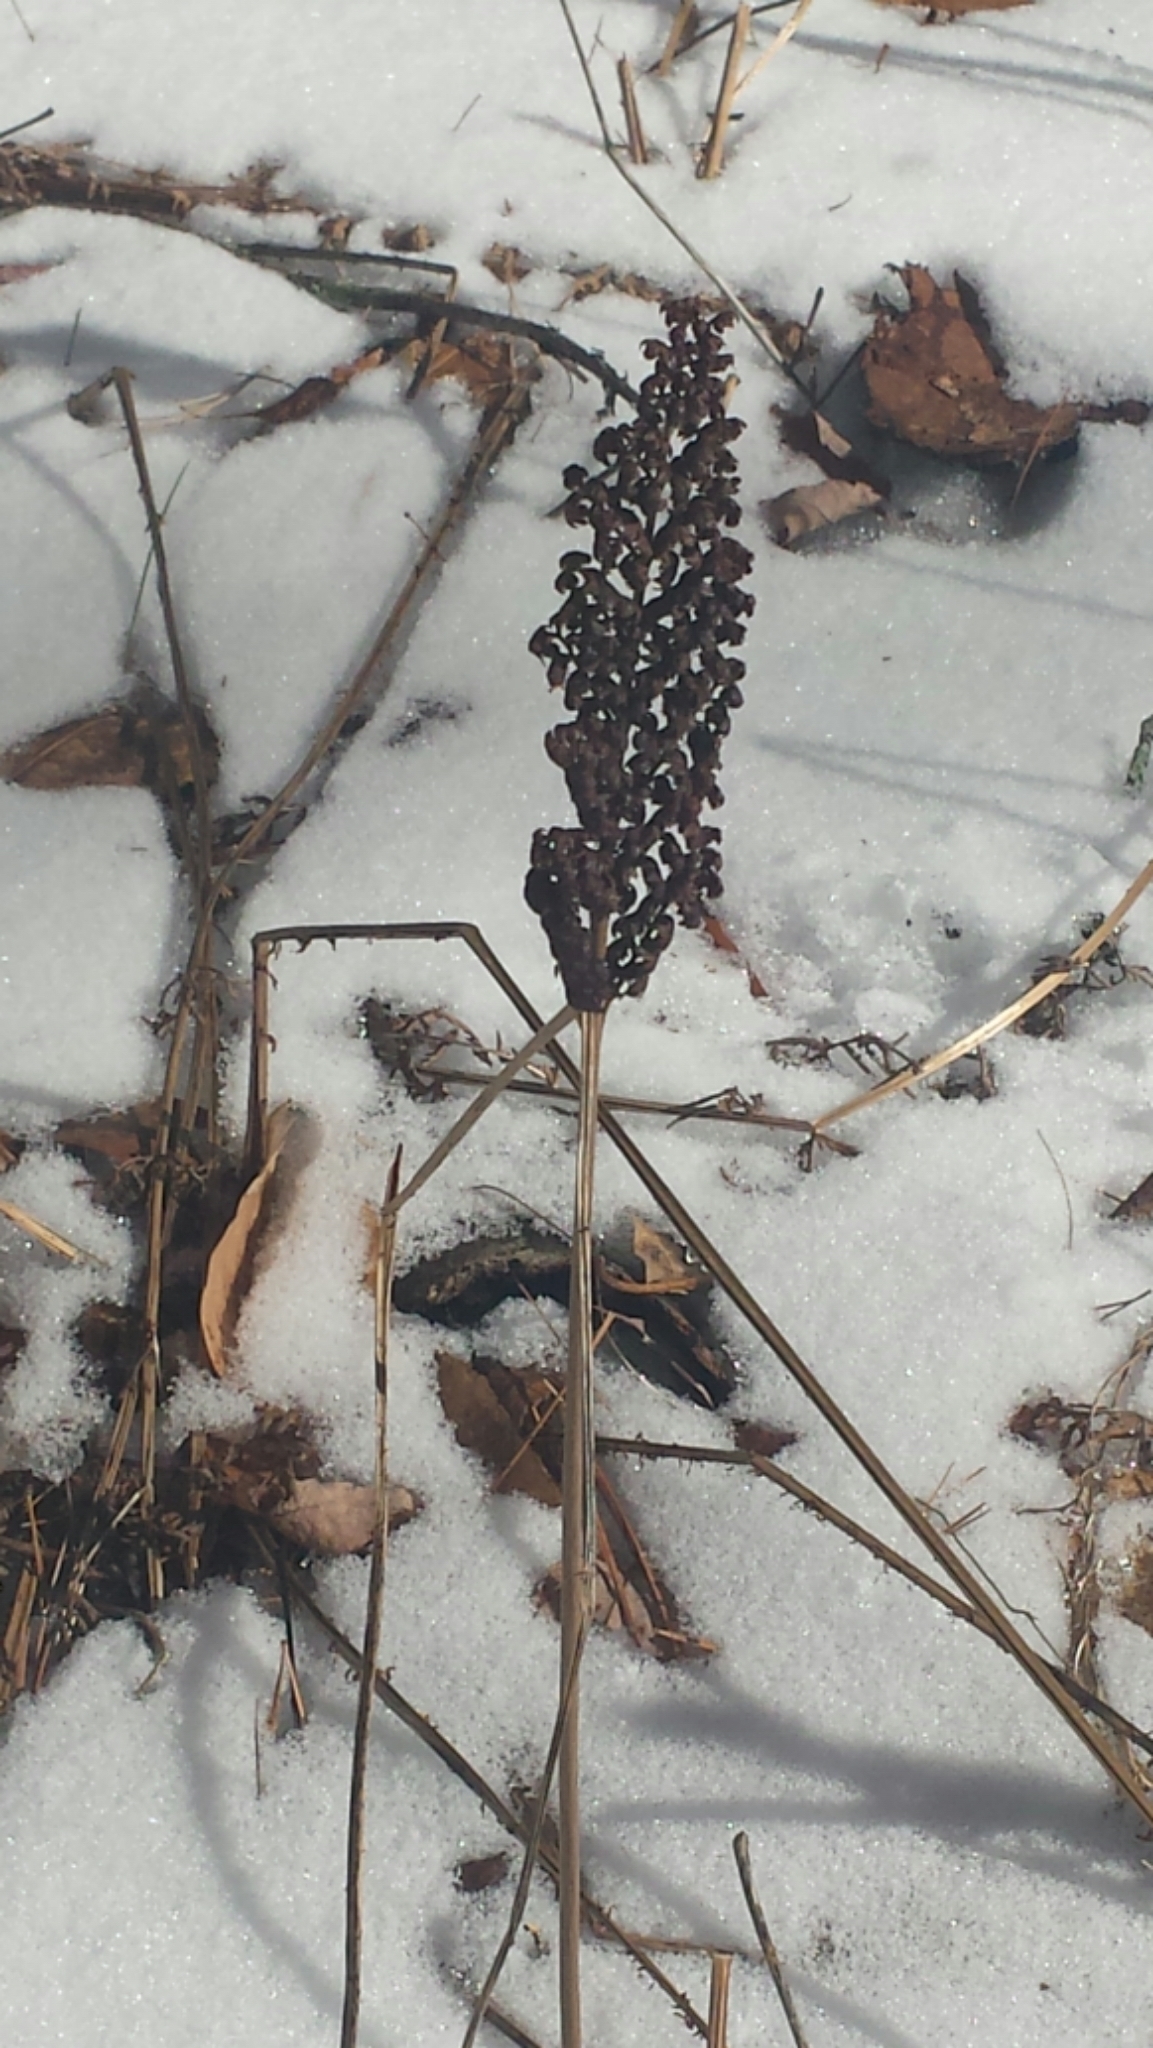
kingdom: Plantae
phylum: Tracheophyta
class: Polypodiopsida
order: Polypodiales
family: Onocleaceae
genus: Onoclea
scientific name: Onoclea sensibilis
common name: Sensitive fern
